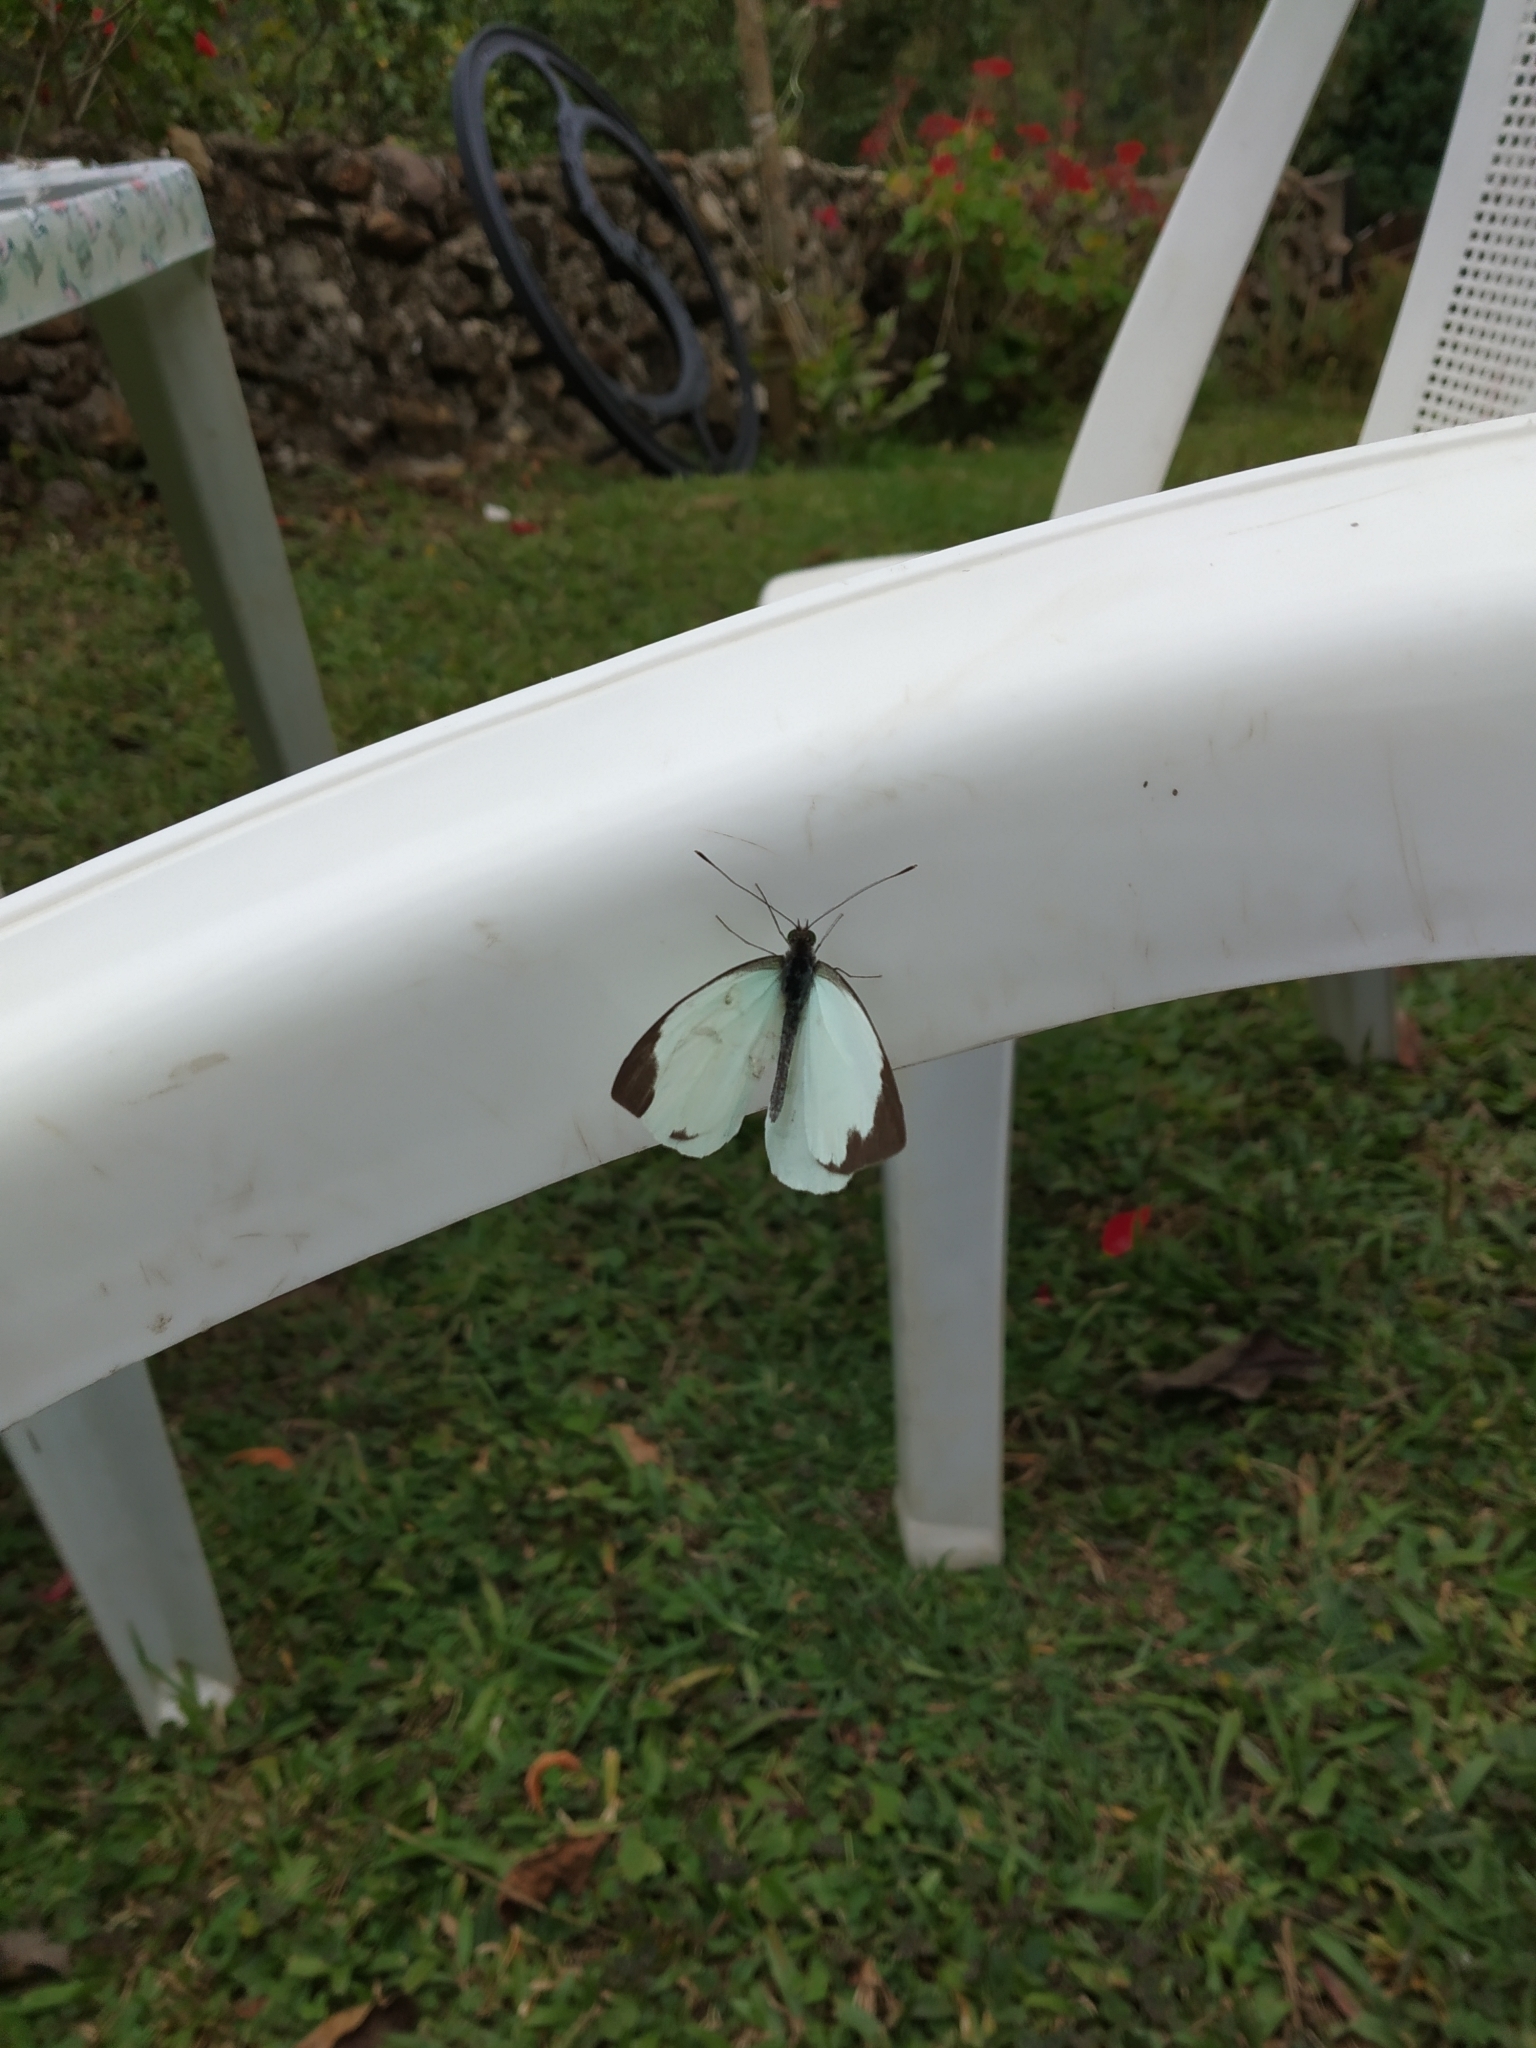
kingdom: Animalia
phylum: Arthropoda
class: Insecta
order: Lepidoptera
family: Pieridae
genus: Leptophobia
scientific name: Leptophobia aripa
